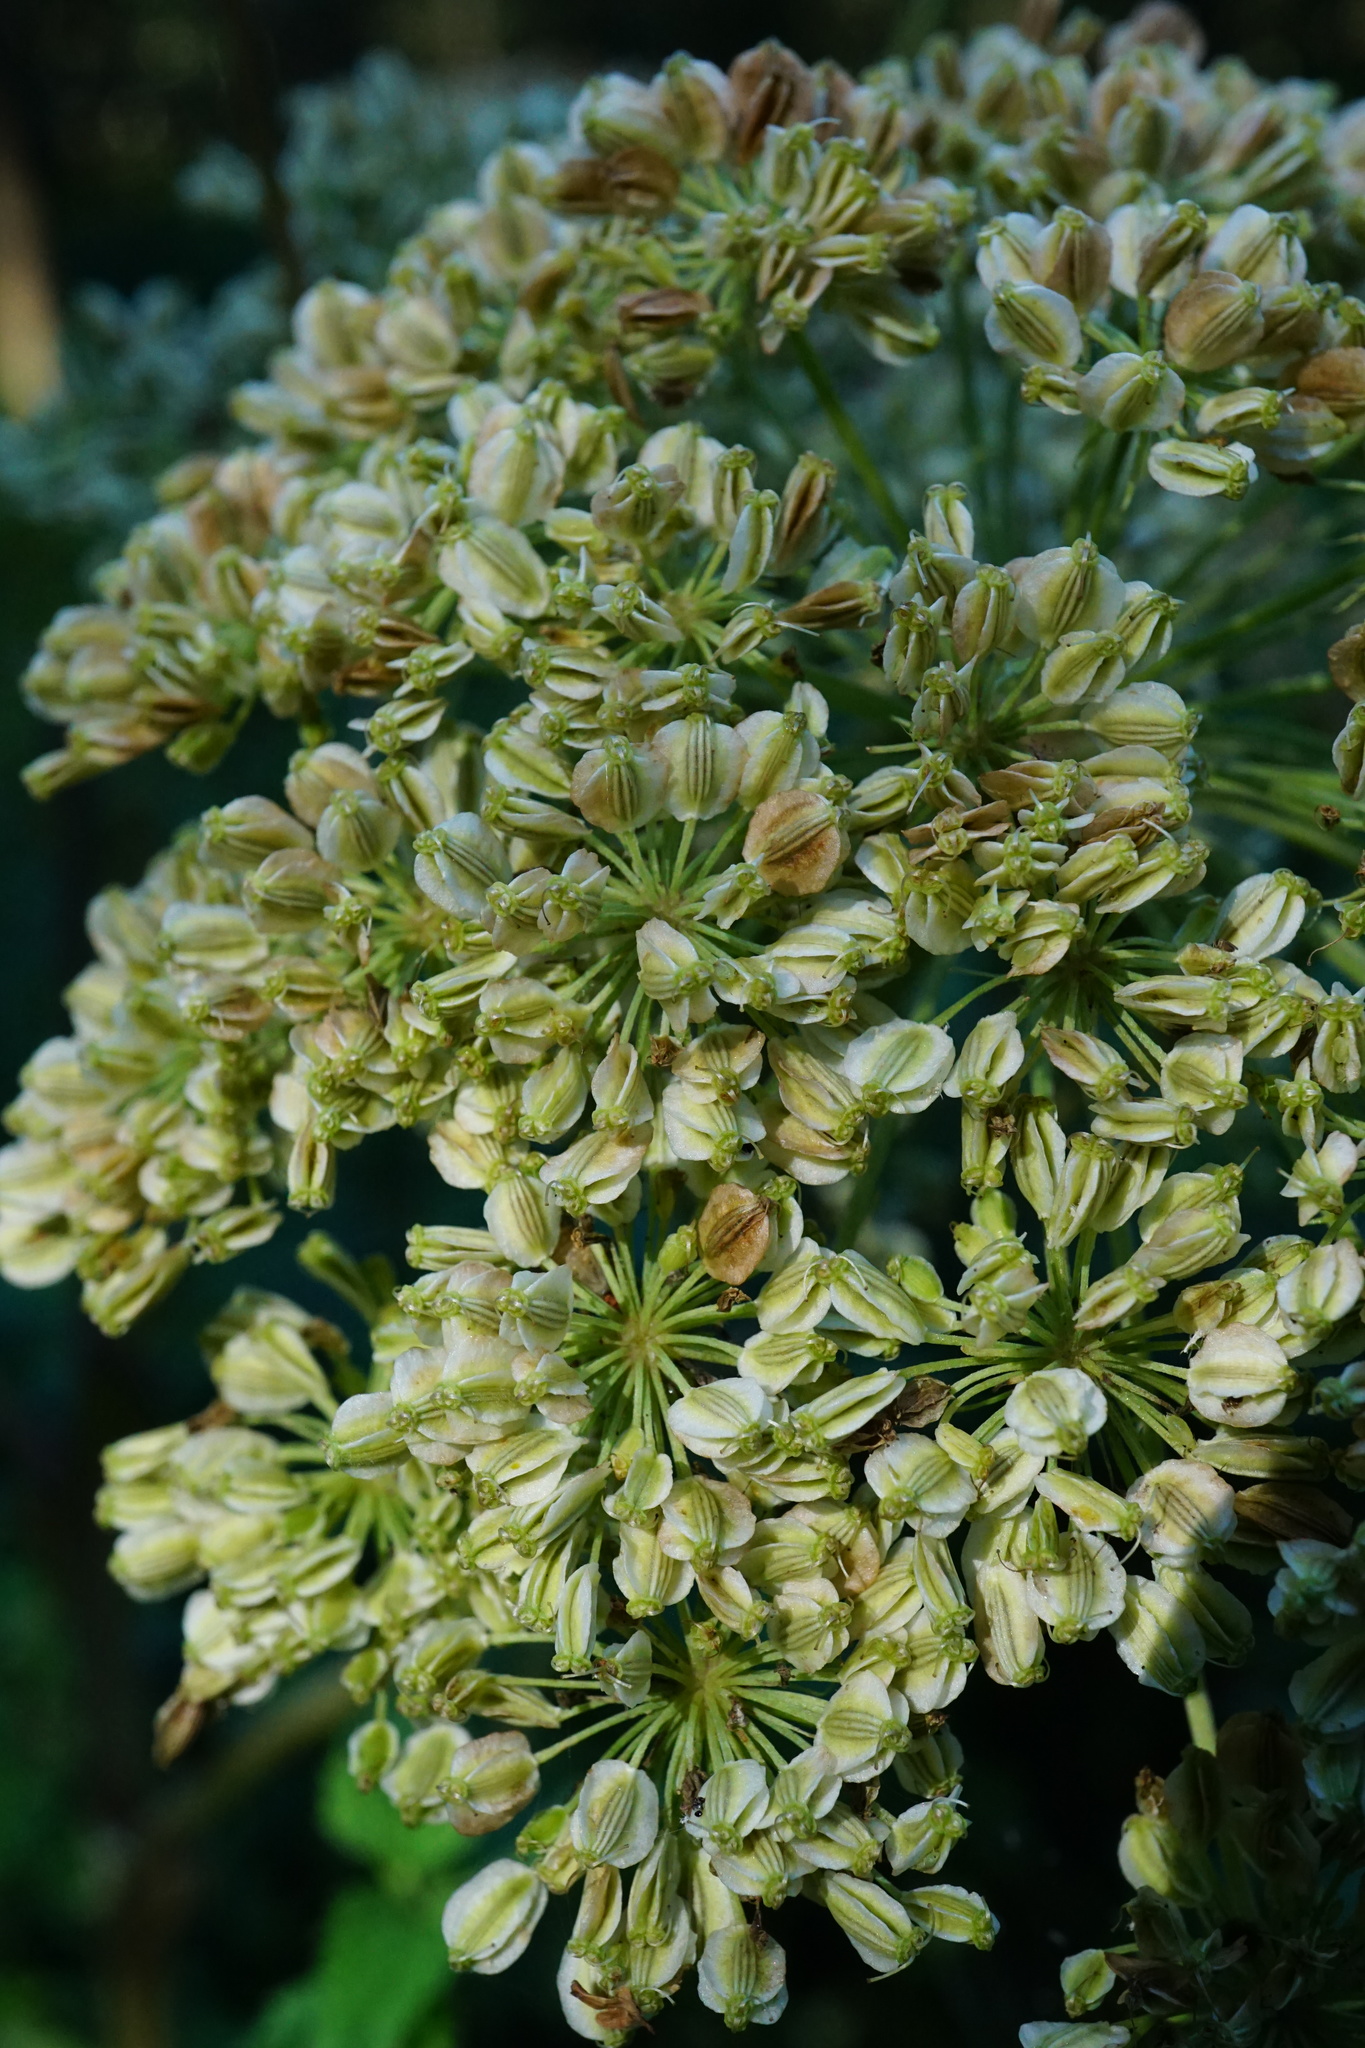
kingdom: Plantae
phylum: Tracheophyta
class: Magnoliopsida
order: Apiales
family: Apiaceae
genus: Angelica
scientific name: Angelica sylvestris
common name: Wild angelica
